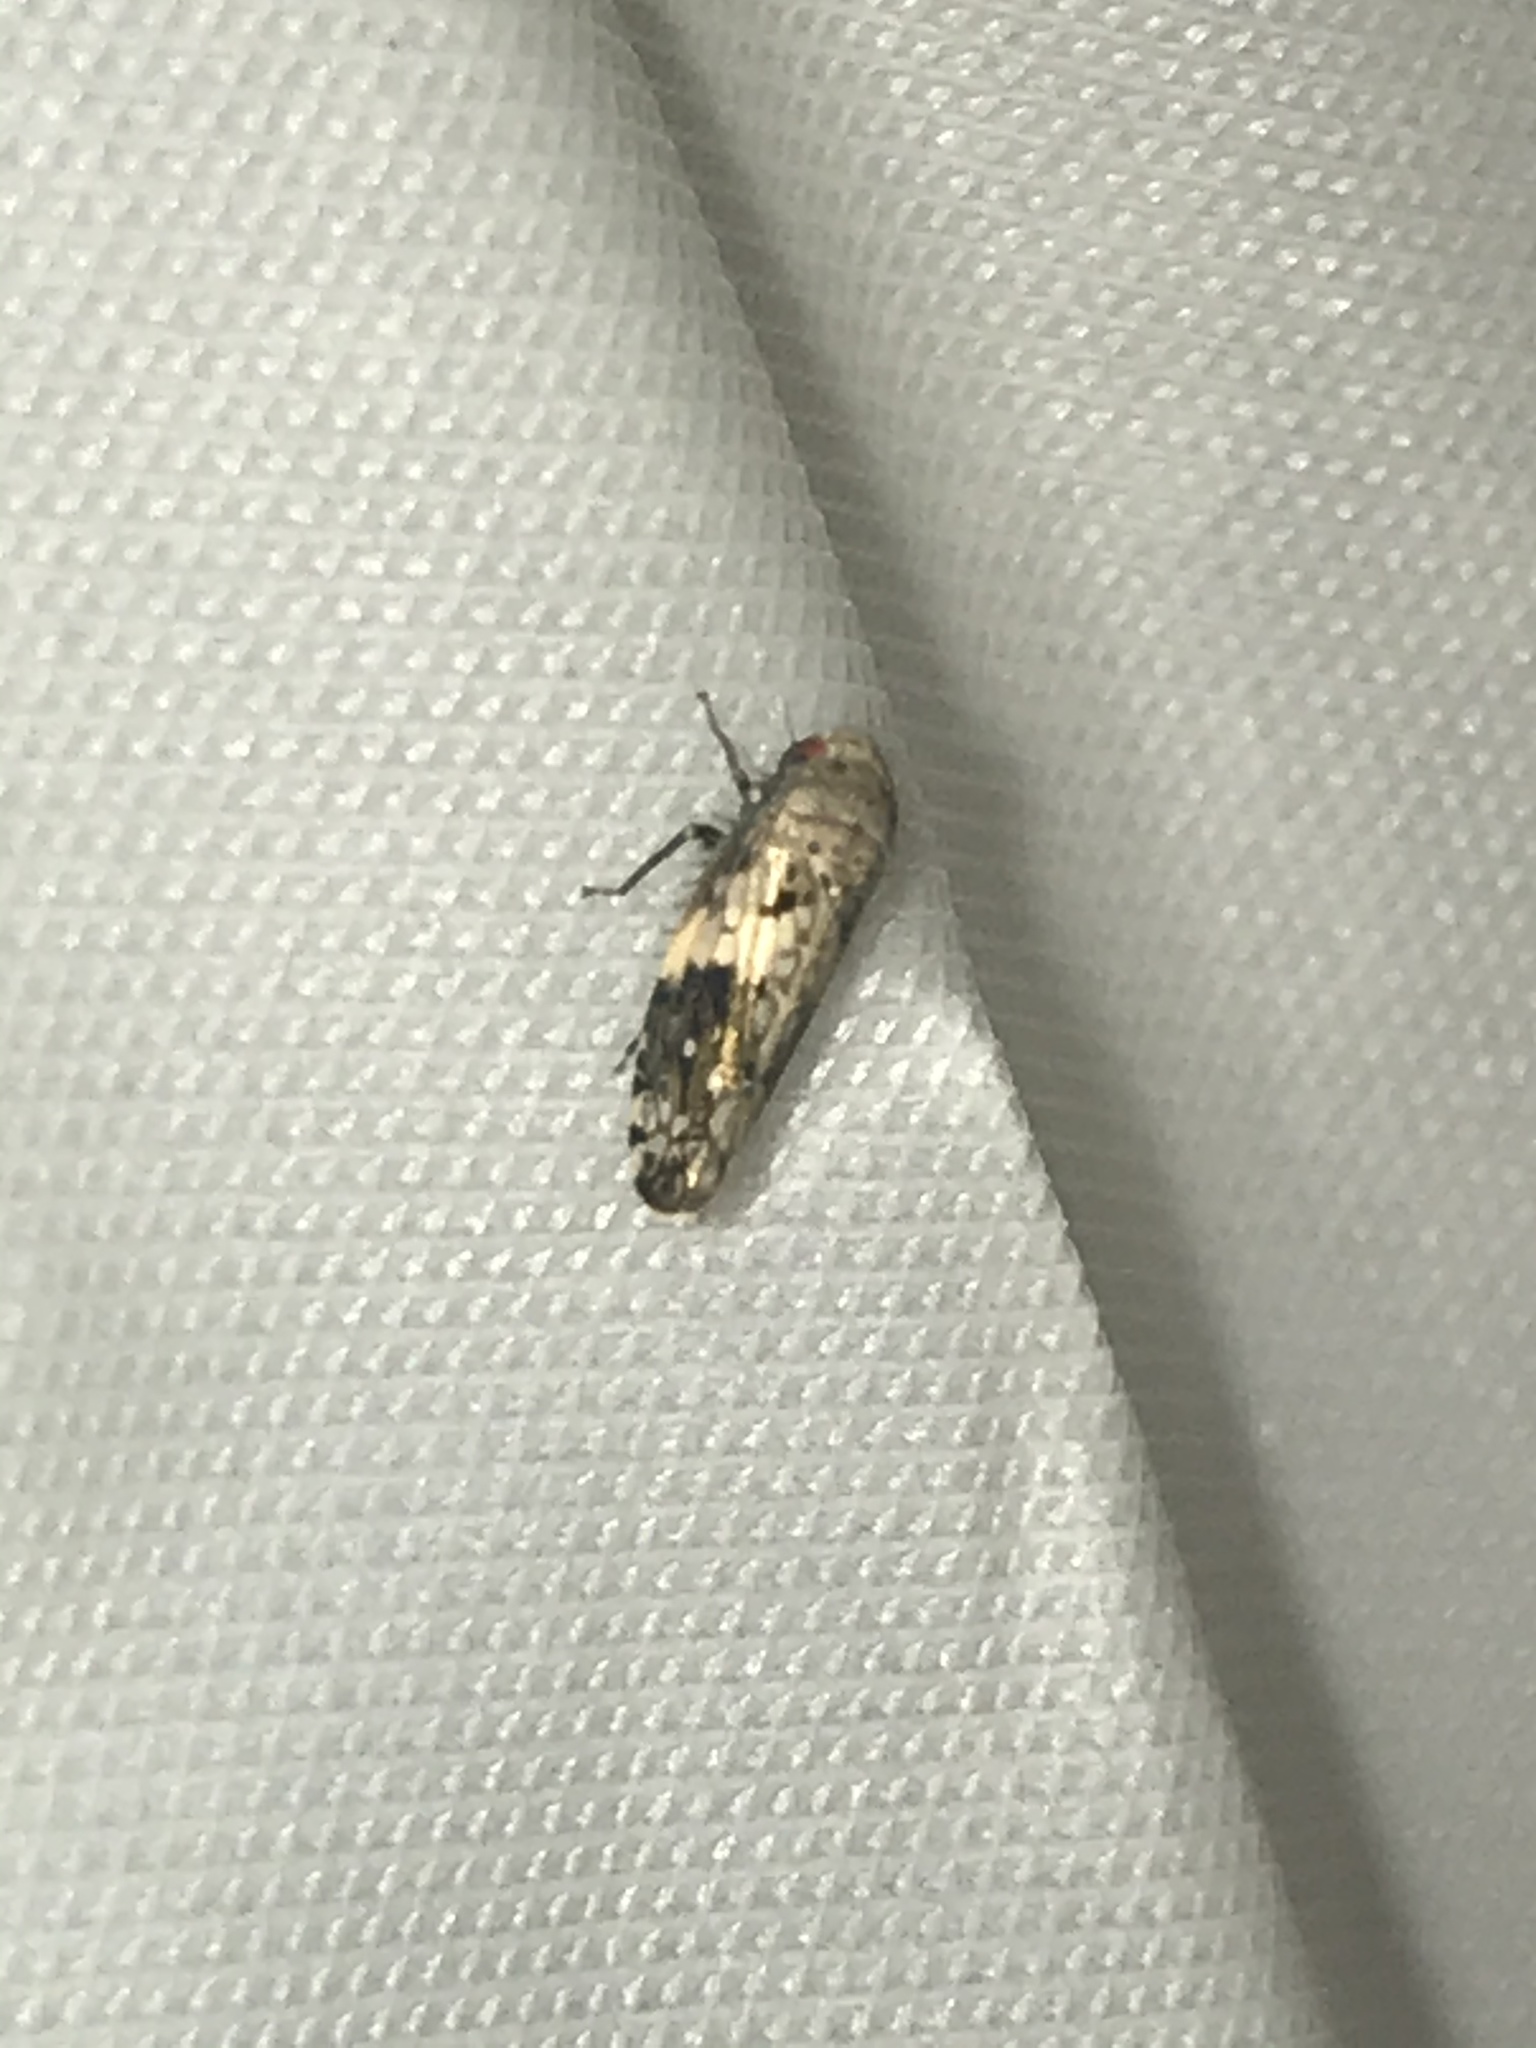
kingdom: Animalia
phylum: Arthropoda
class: Insecta
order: Hemiptera
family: Cicadellidae
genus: Menosoma
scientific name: Menosoma cinctum
